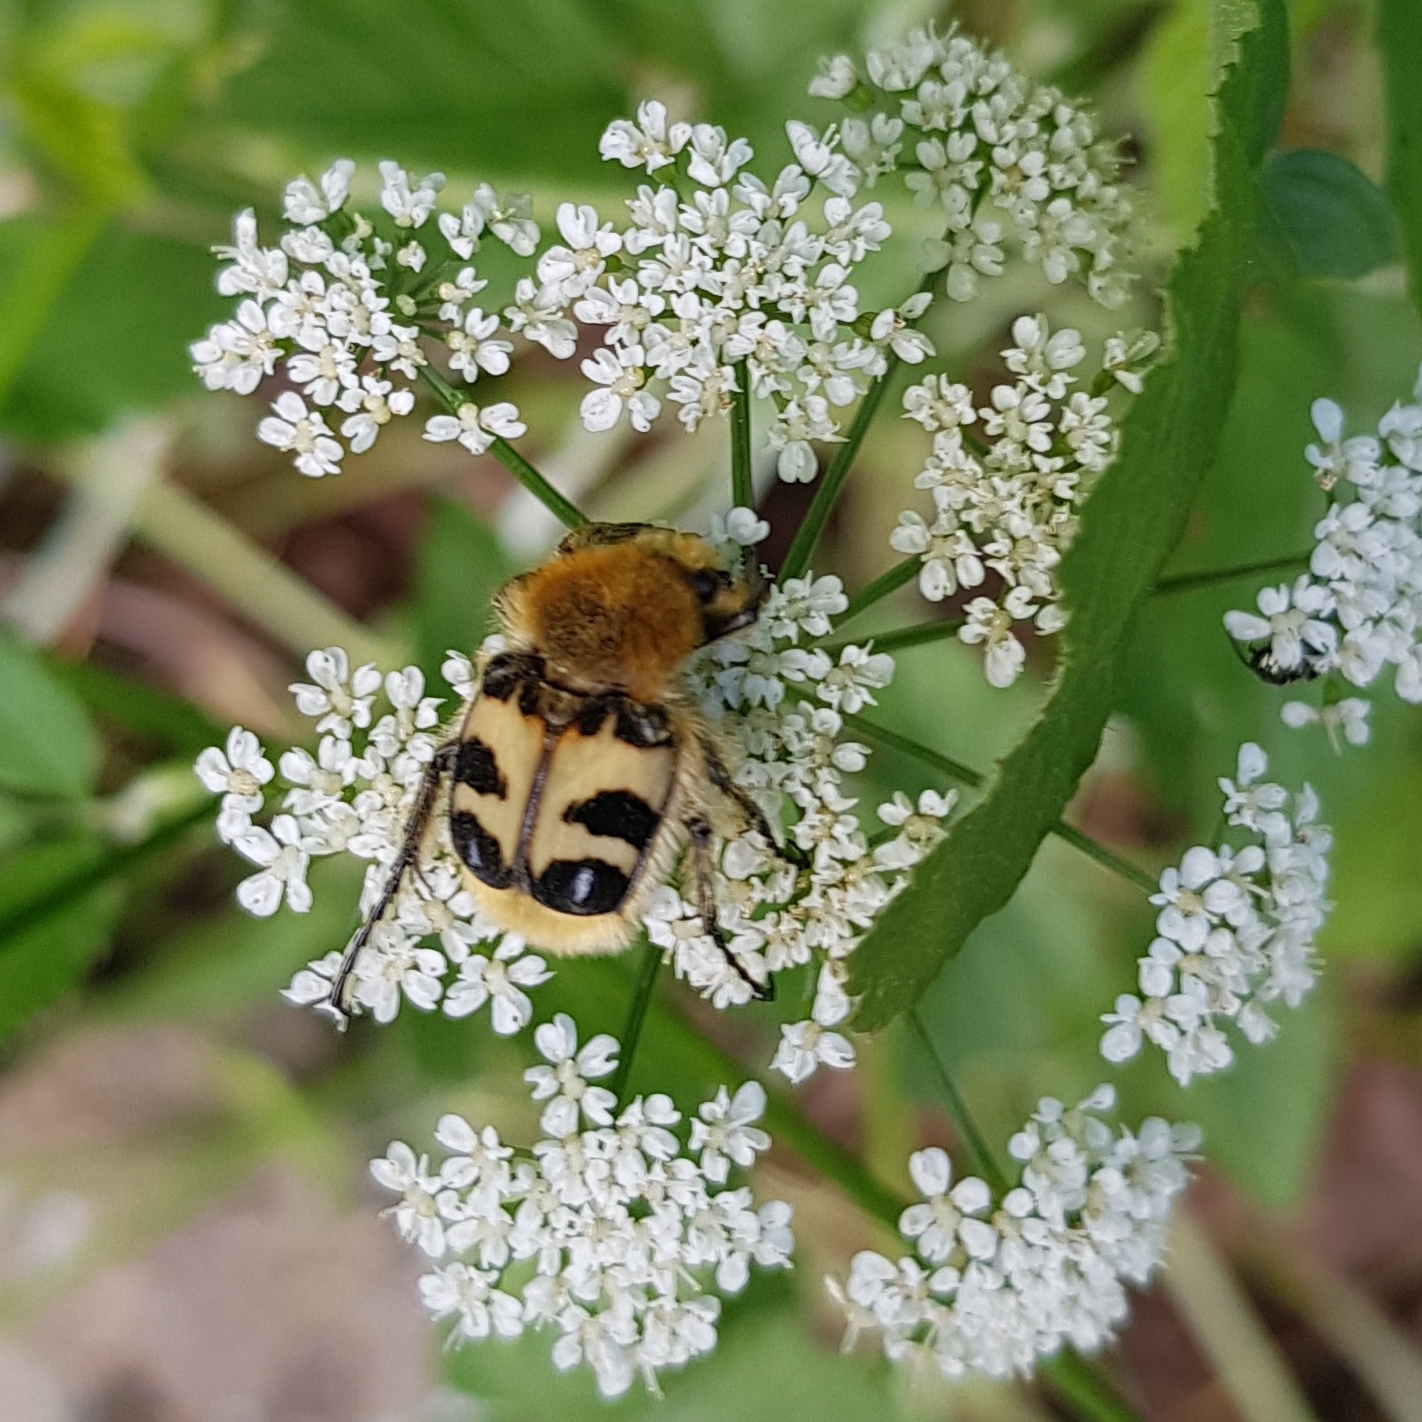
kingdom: Animalia
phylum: Arthropoda
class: Insecta
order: Coleoptera
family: Scarabaeidae
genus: Trichius
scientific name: Trichius fasciatus
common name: Bee beetle
